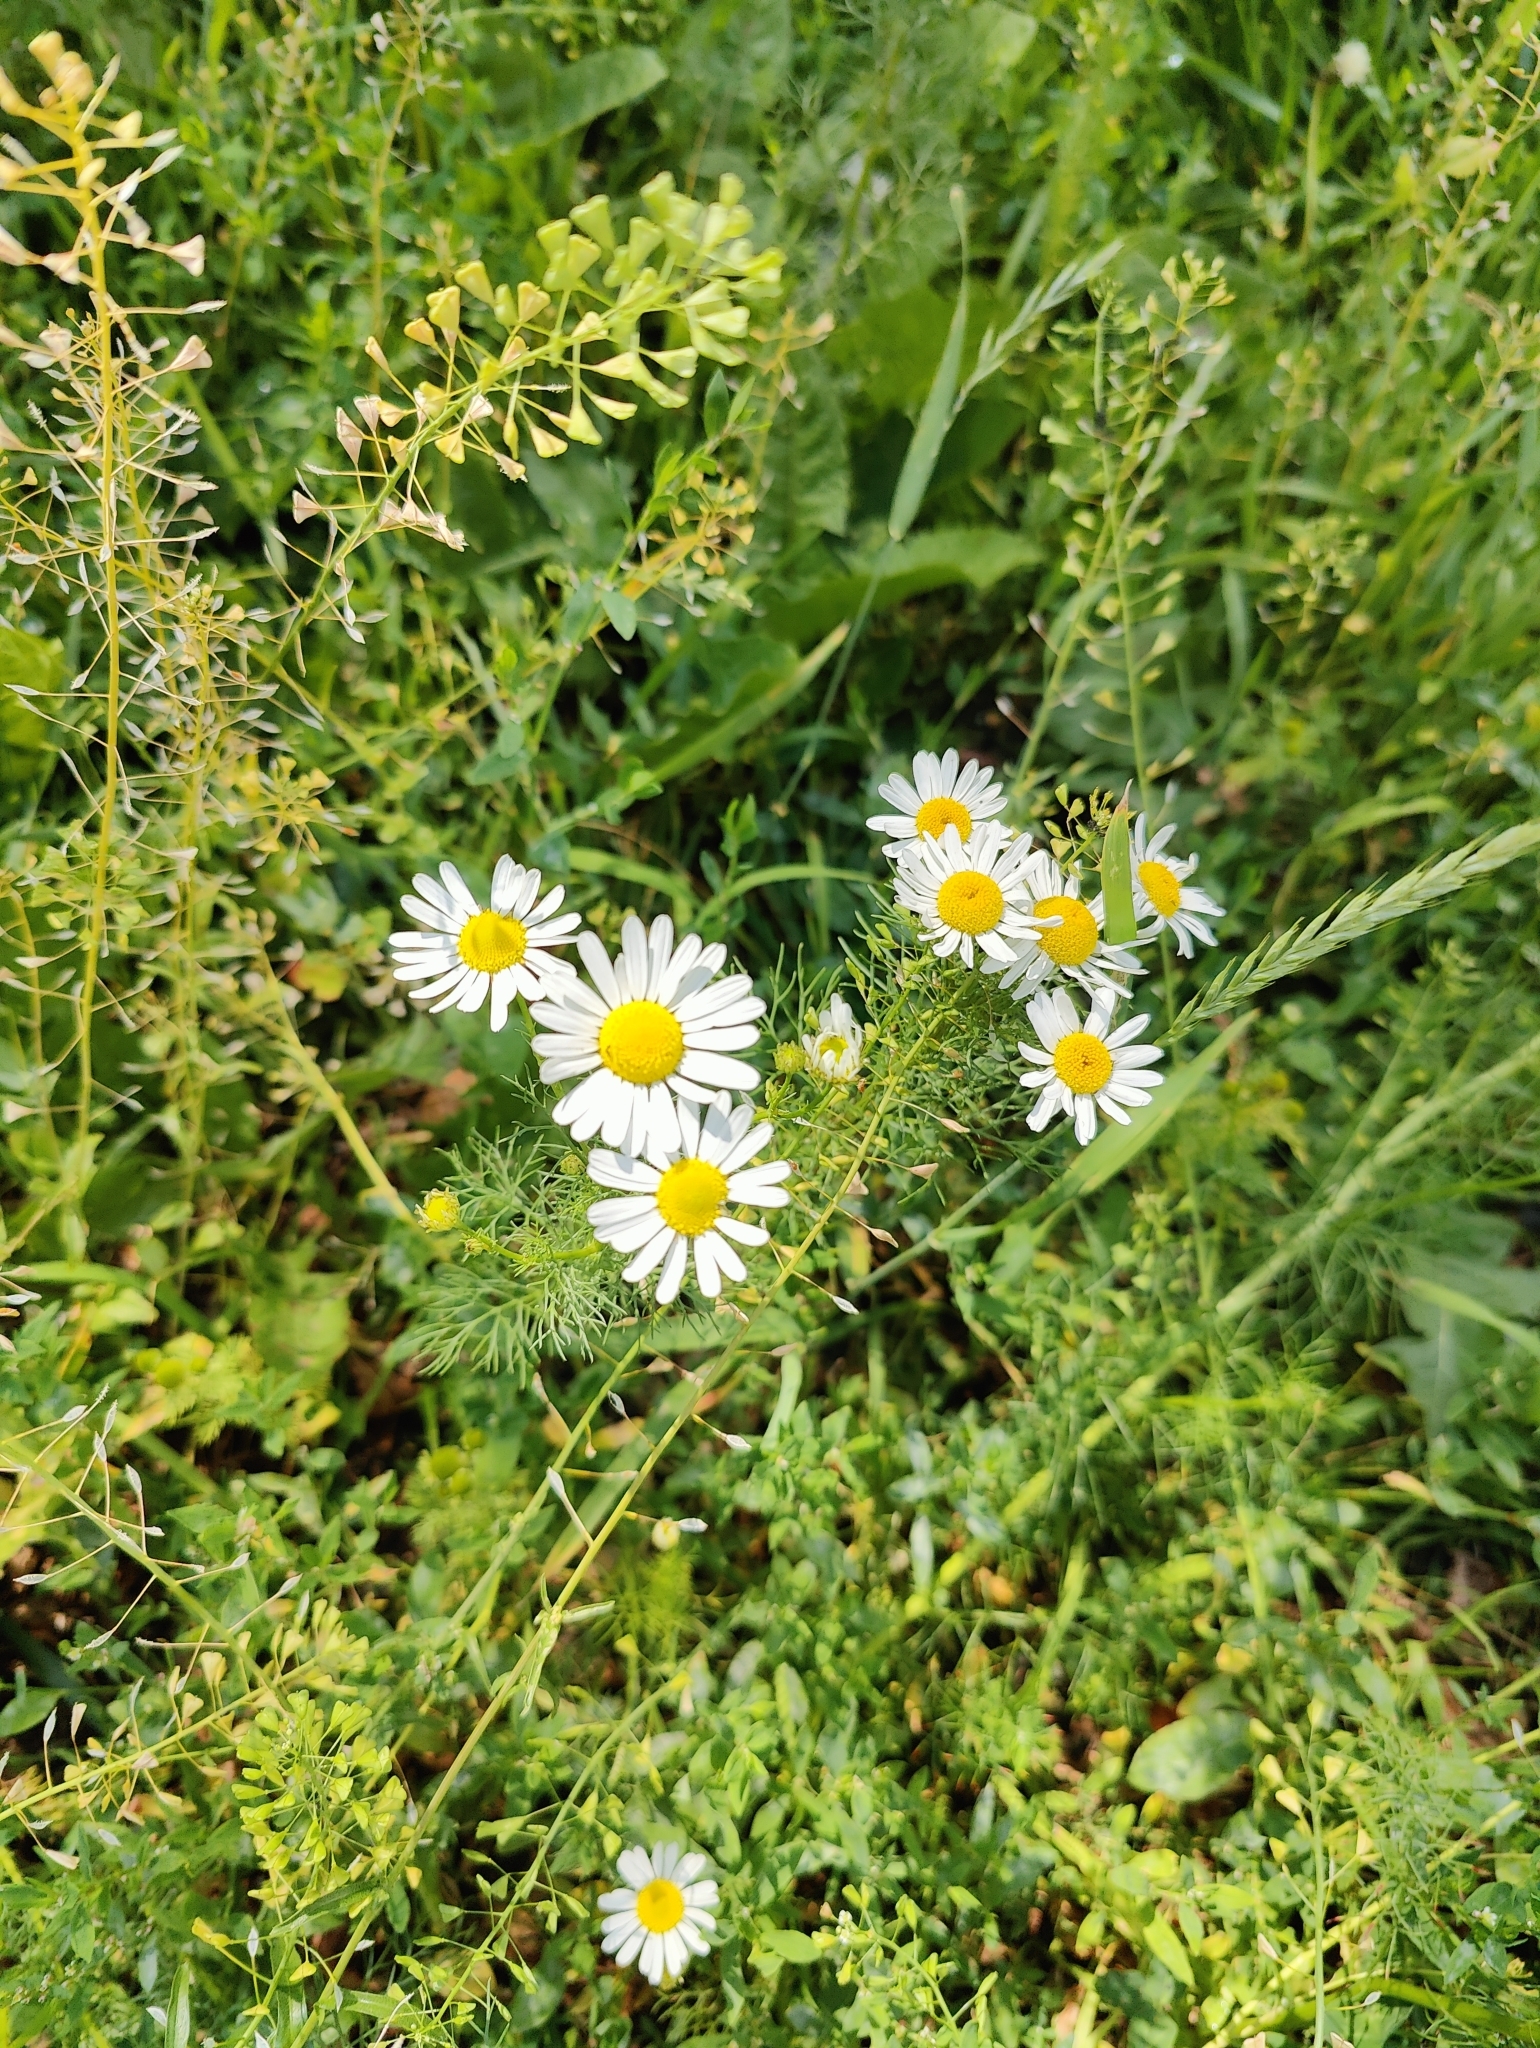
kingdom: Plantae
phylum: Tracheophyta
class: Magnoliopsida
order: Asterales
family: Asteraceae
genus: Tripleurospermum
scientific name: Tripleurospermum inodorum
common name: Scentless mayweed
